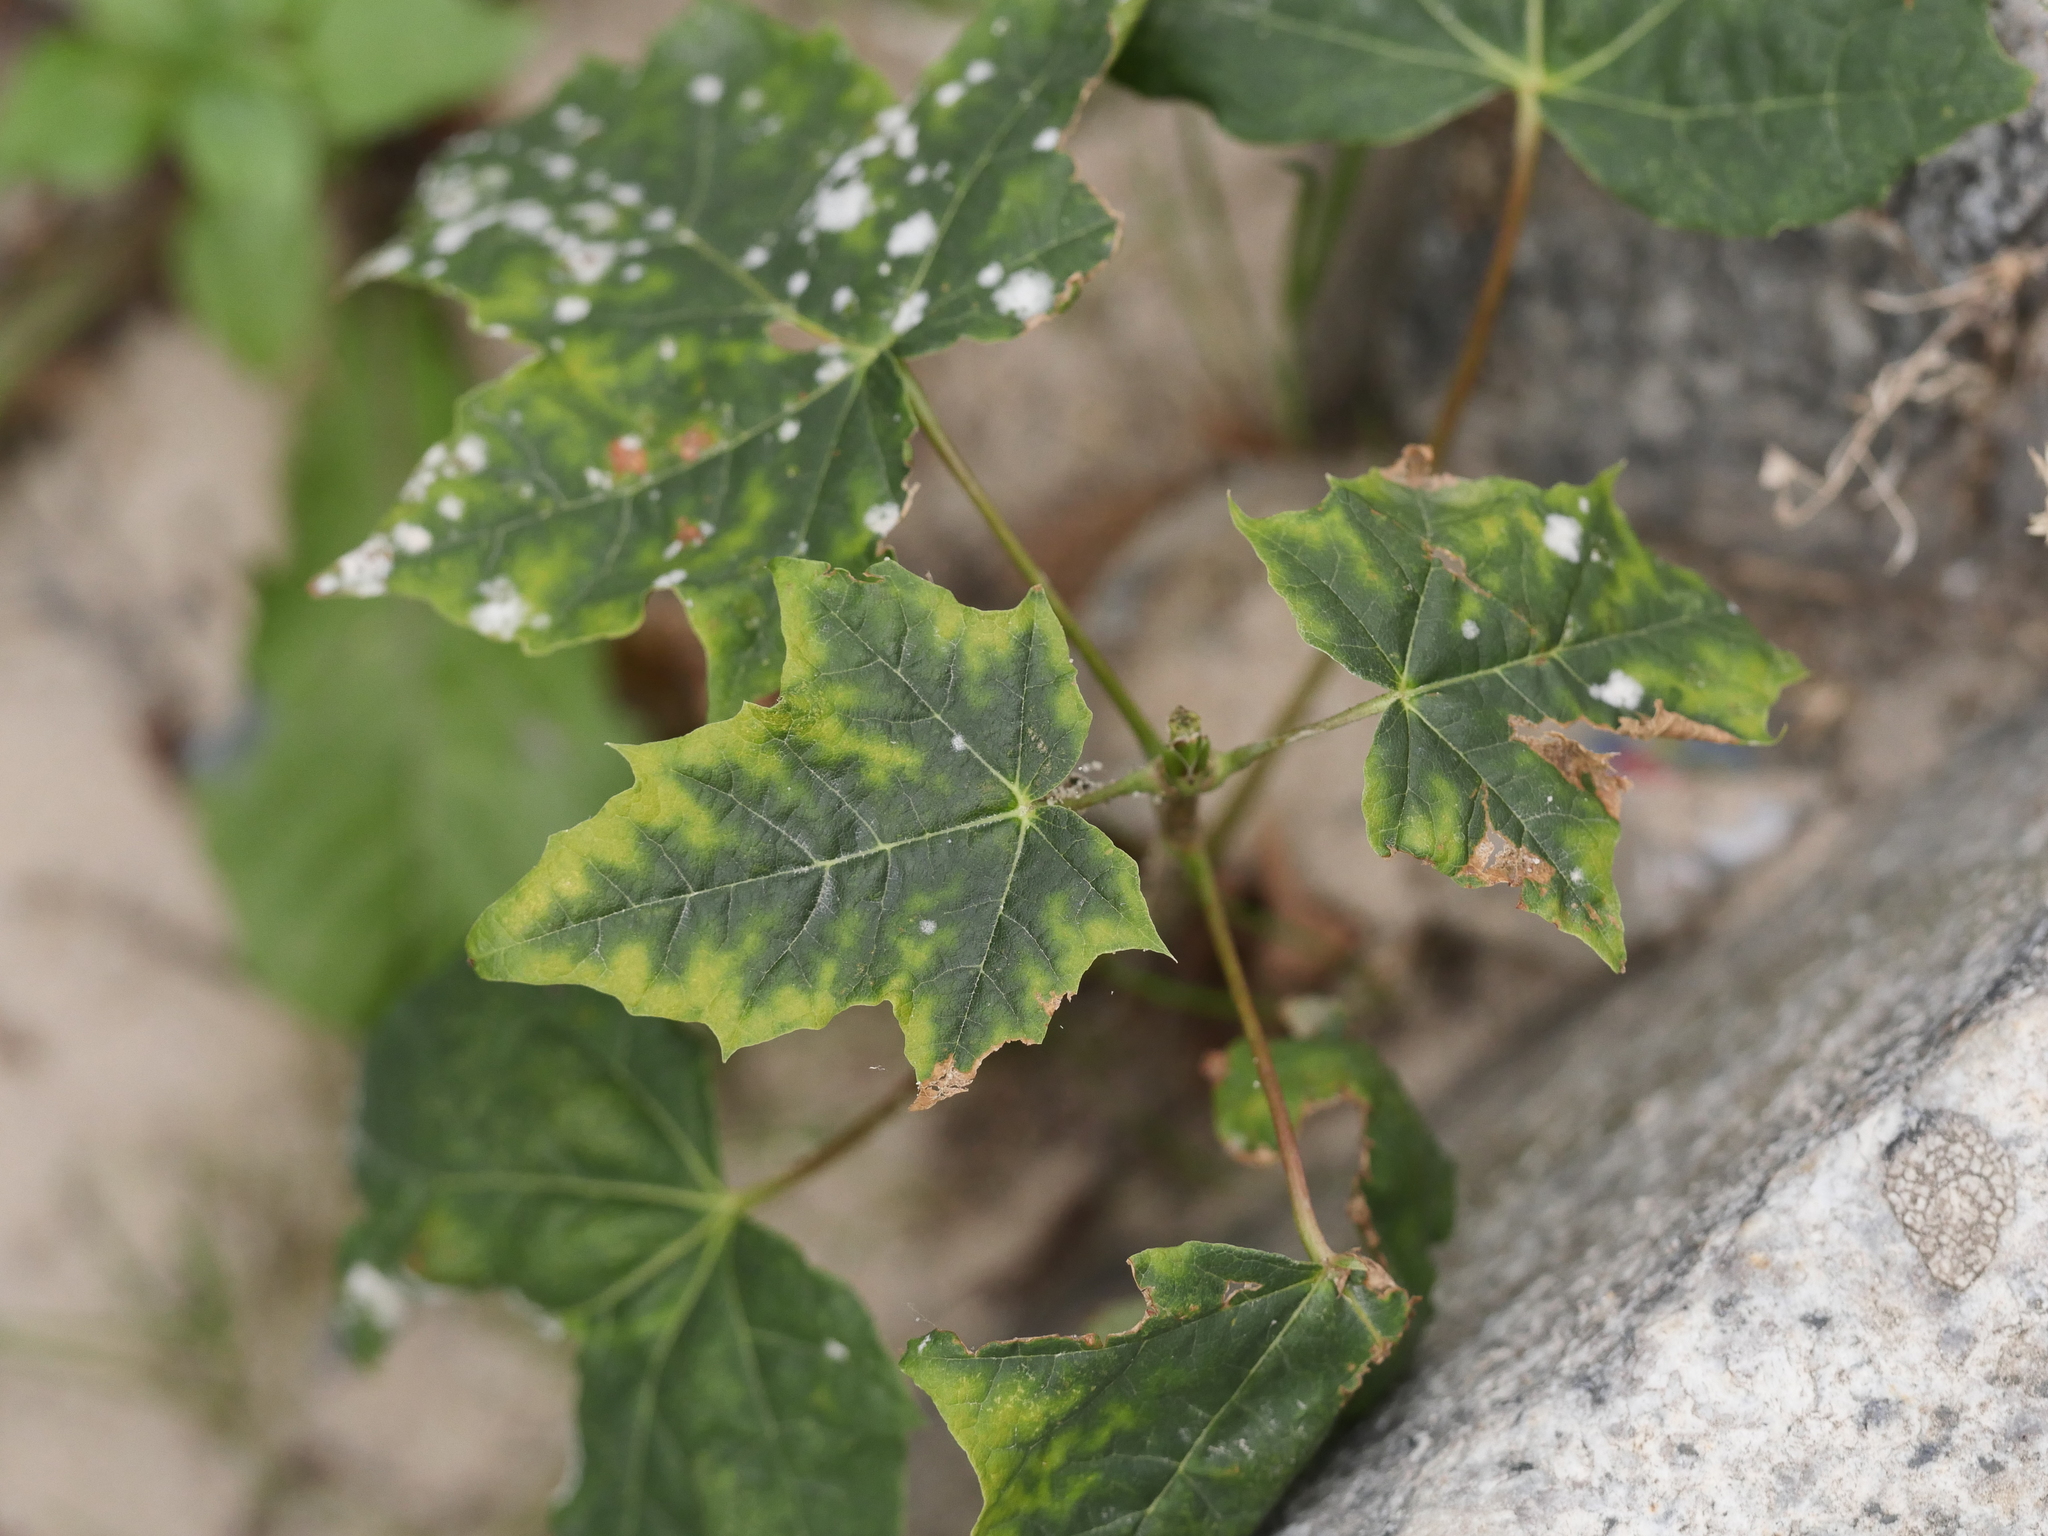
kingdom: Plantae
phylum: Tracheophyta
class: Magnoliopsida
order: Sapindales
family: Sapindaceae
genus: Acer
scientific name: Acer platanoides
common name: Norway maple
